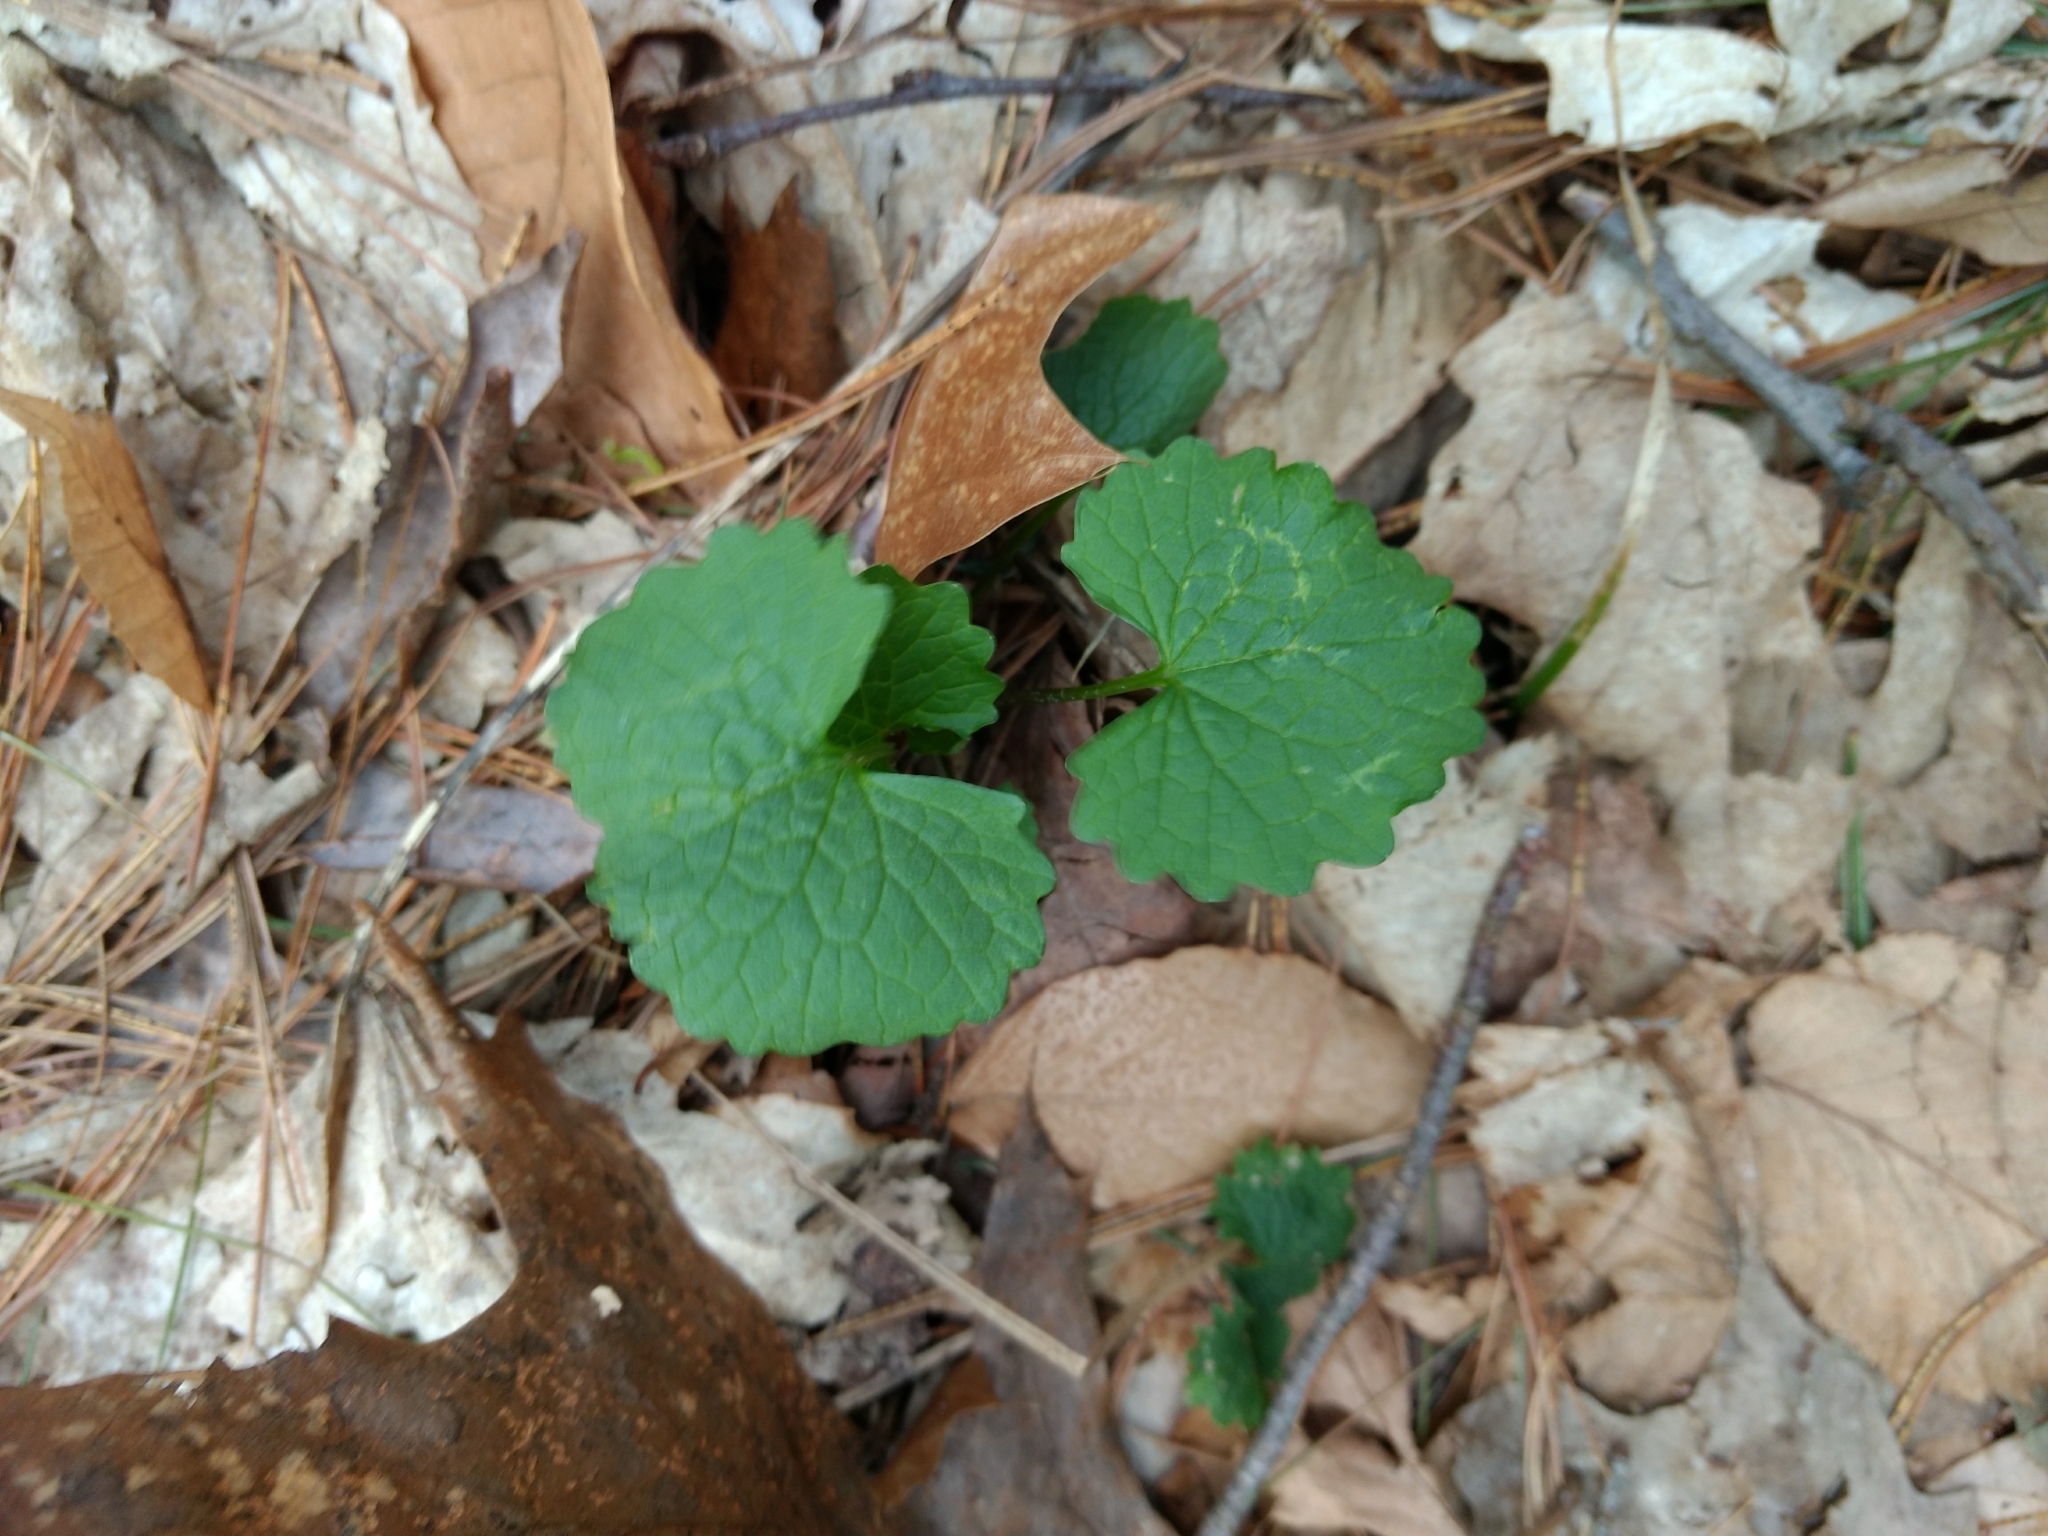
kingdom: Plantae
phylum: Tracheophyta
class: Magnoliopsida
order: Brassicales
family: Brassicaceae
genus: Alliaria
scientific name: Alliaria petiolata
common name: Garlic mustard
